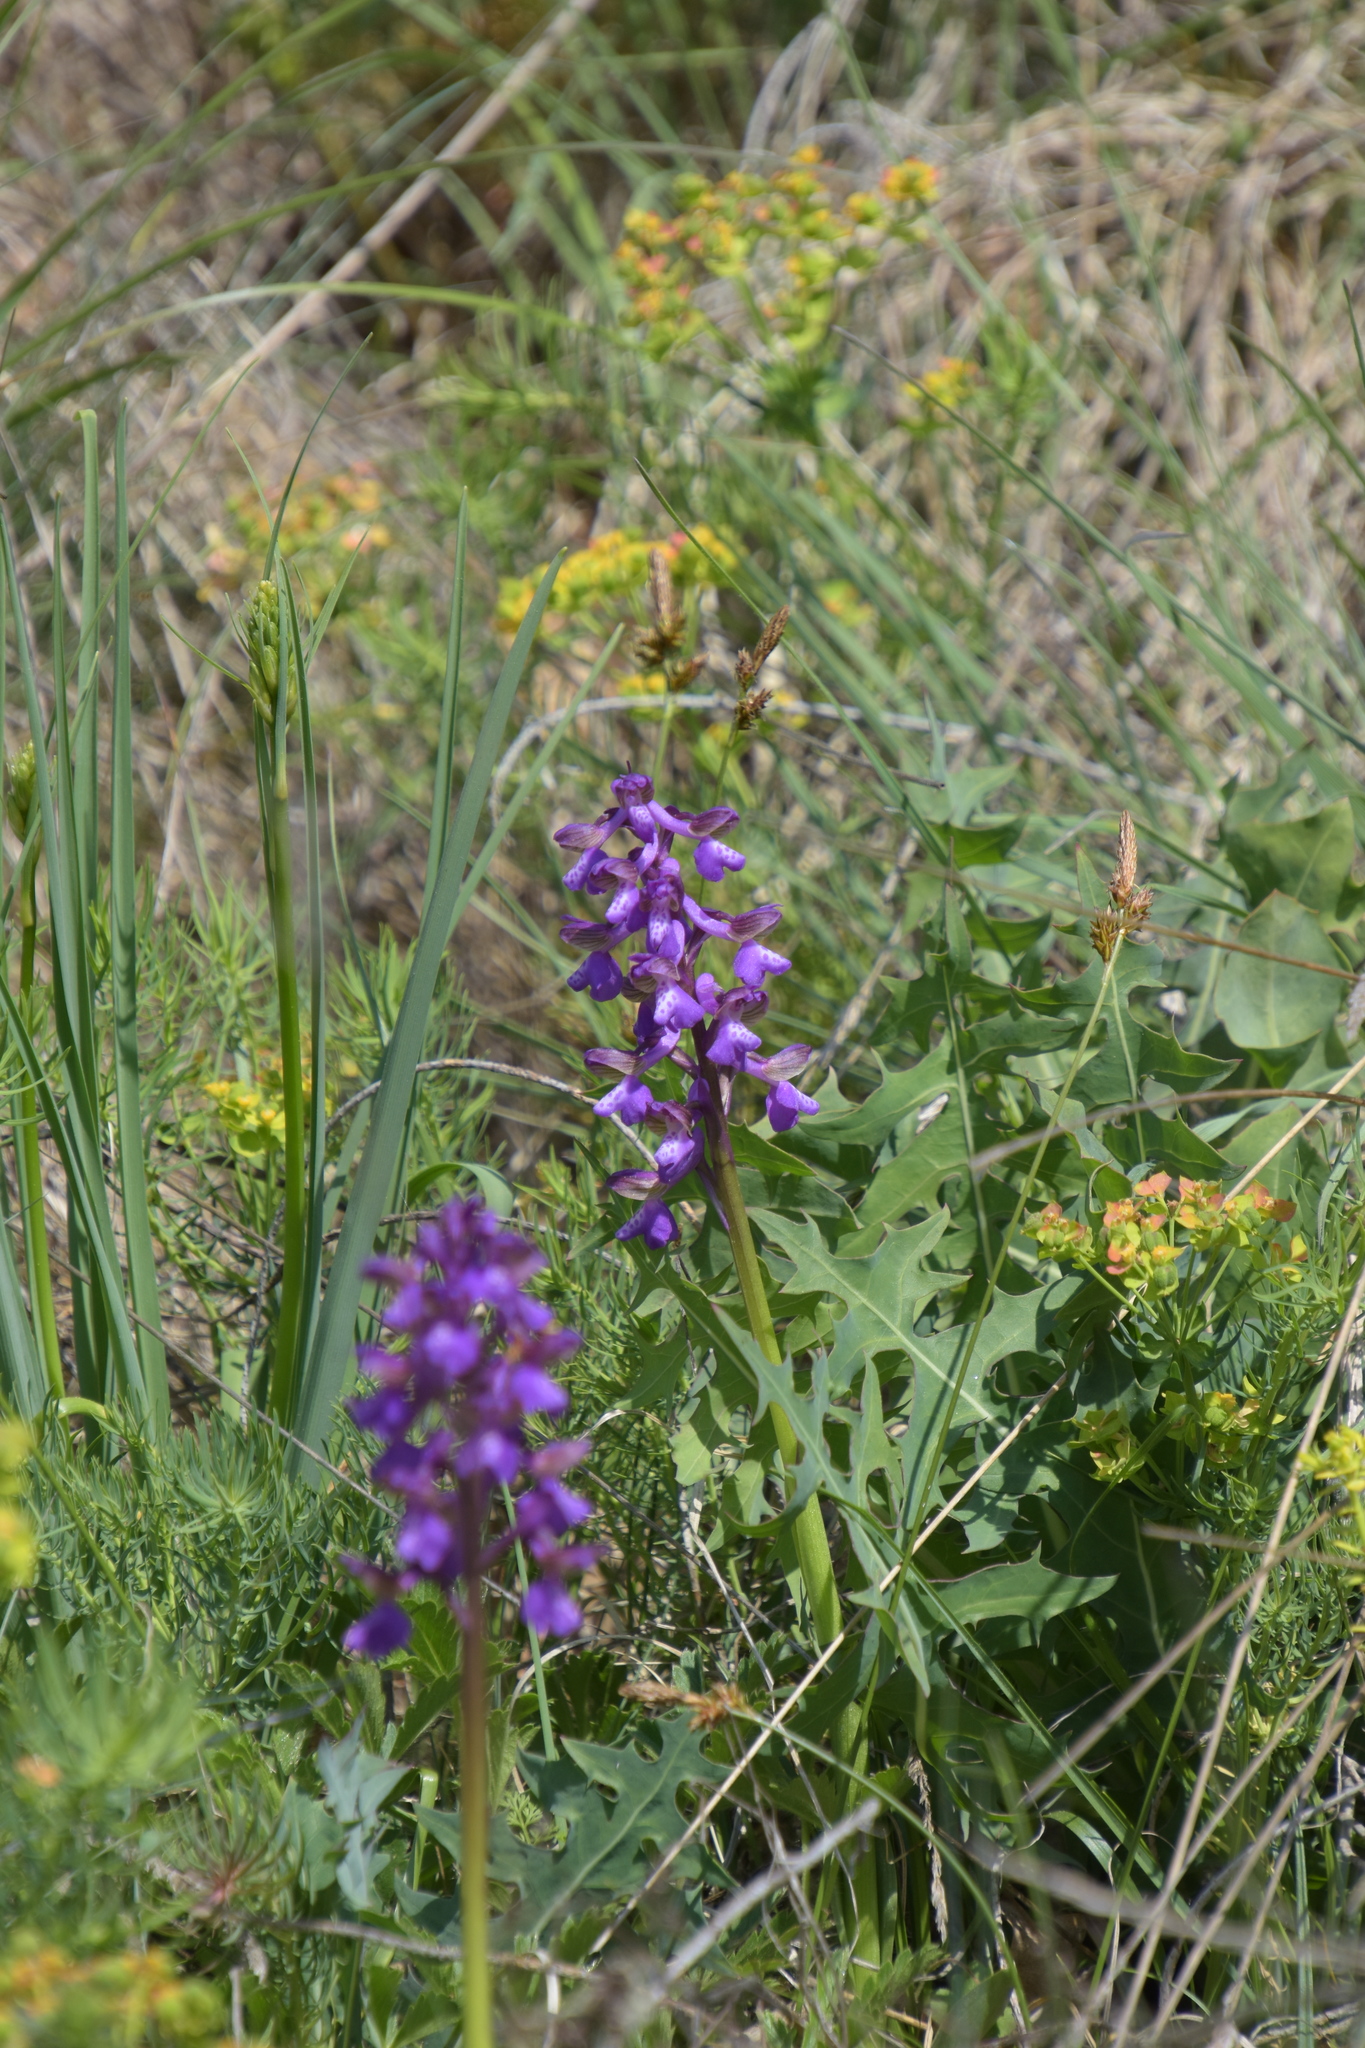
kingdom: Plantae
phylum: Tracheophyta
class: Liliopsida
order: Asparagales
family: Orchidaceae
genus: Anacamptis
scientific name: Anacamptis morio
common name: Green-winged orchid
